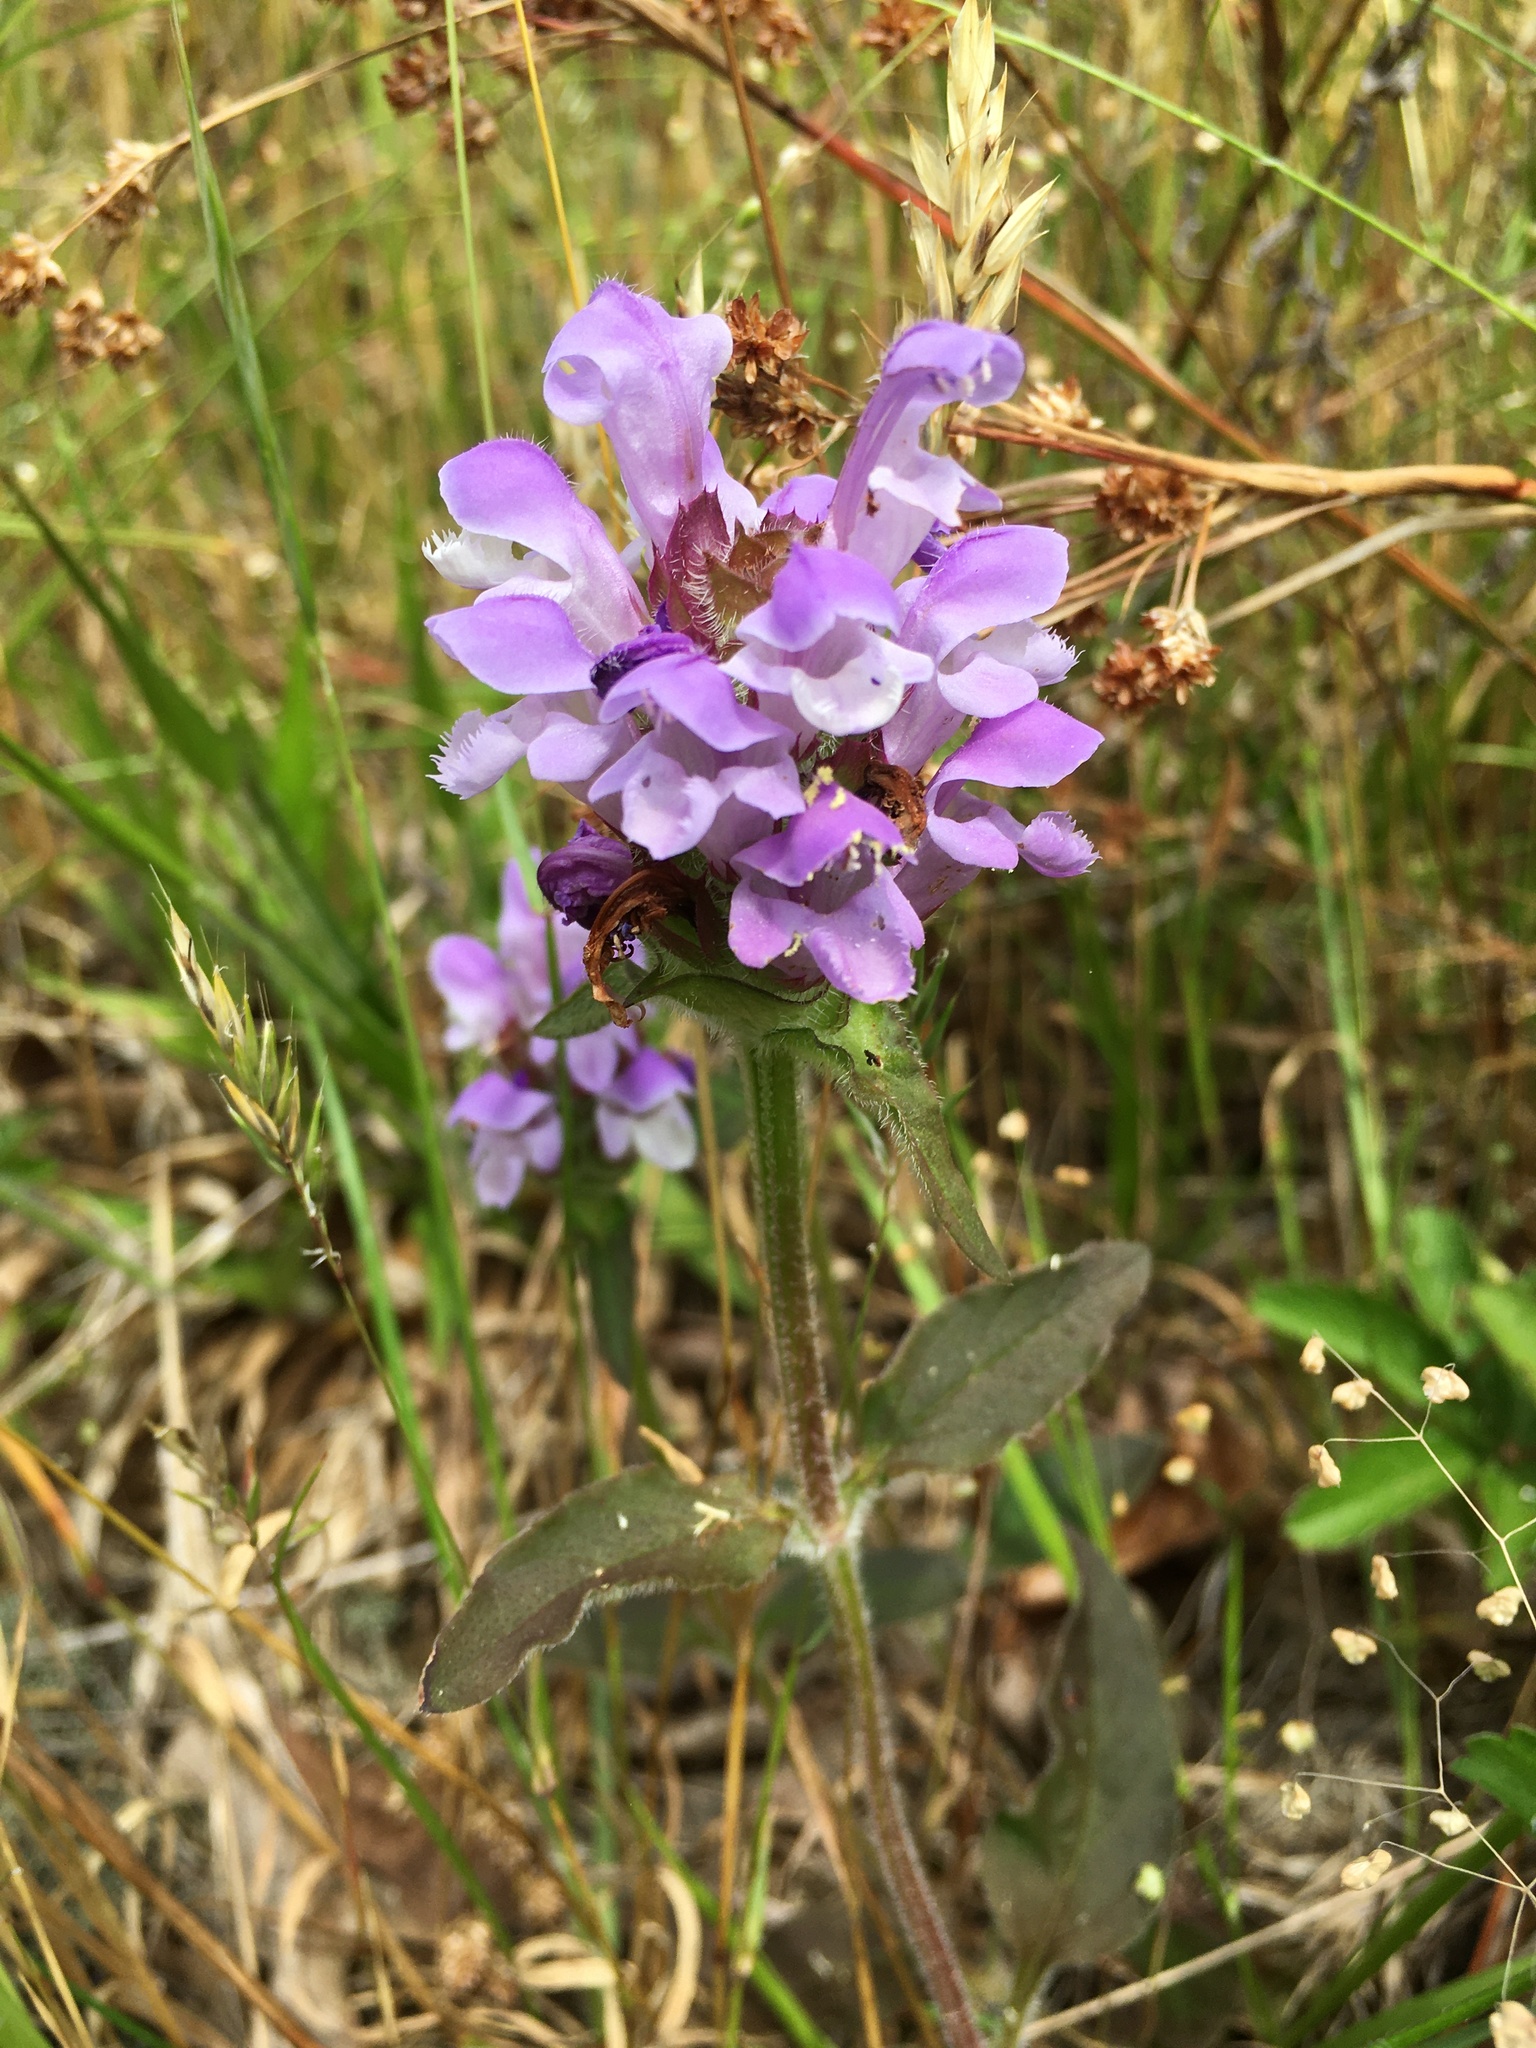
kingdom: Plantae
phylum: Tracheophyta
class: Magnoliopsida
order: Lamiales
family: Lamiaceae
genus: Prunella
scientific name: Prunella vulgaris
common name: Heal-all
